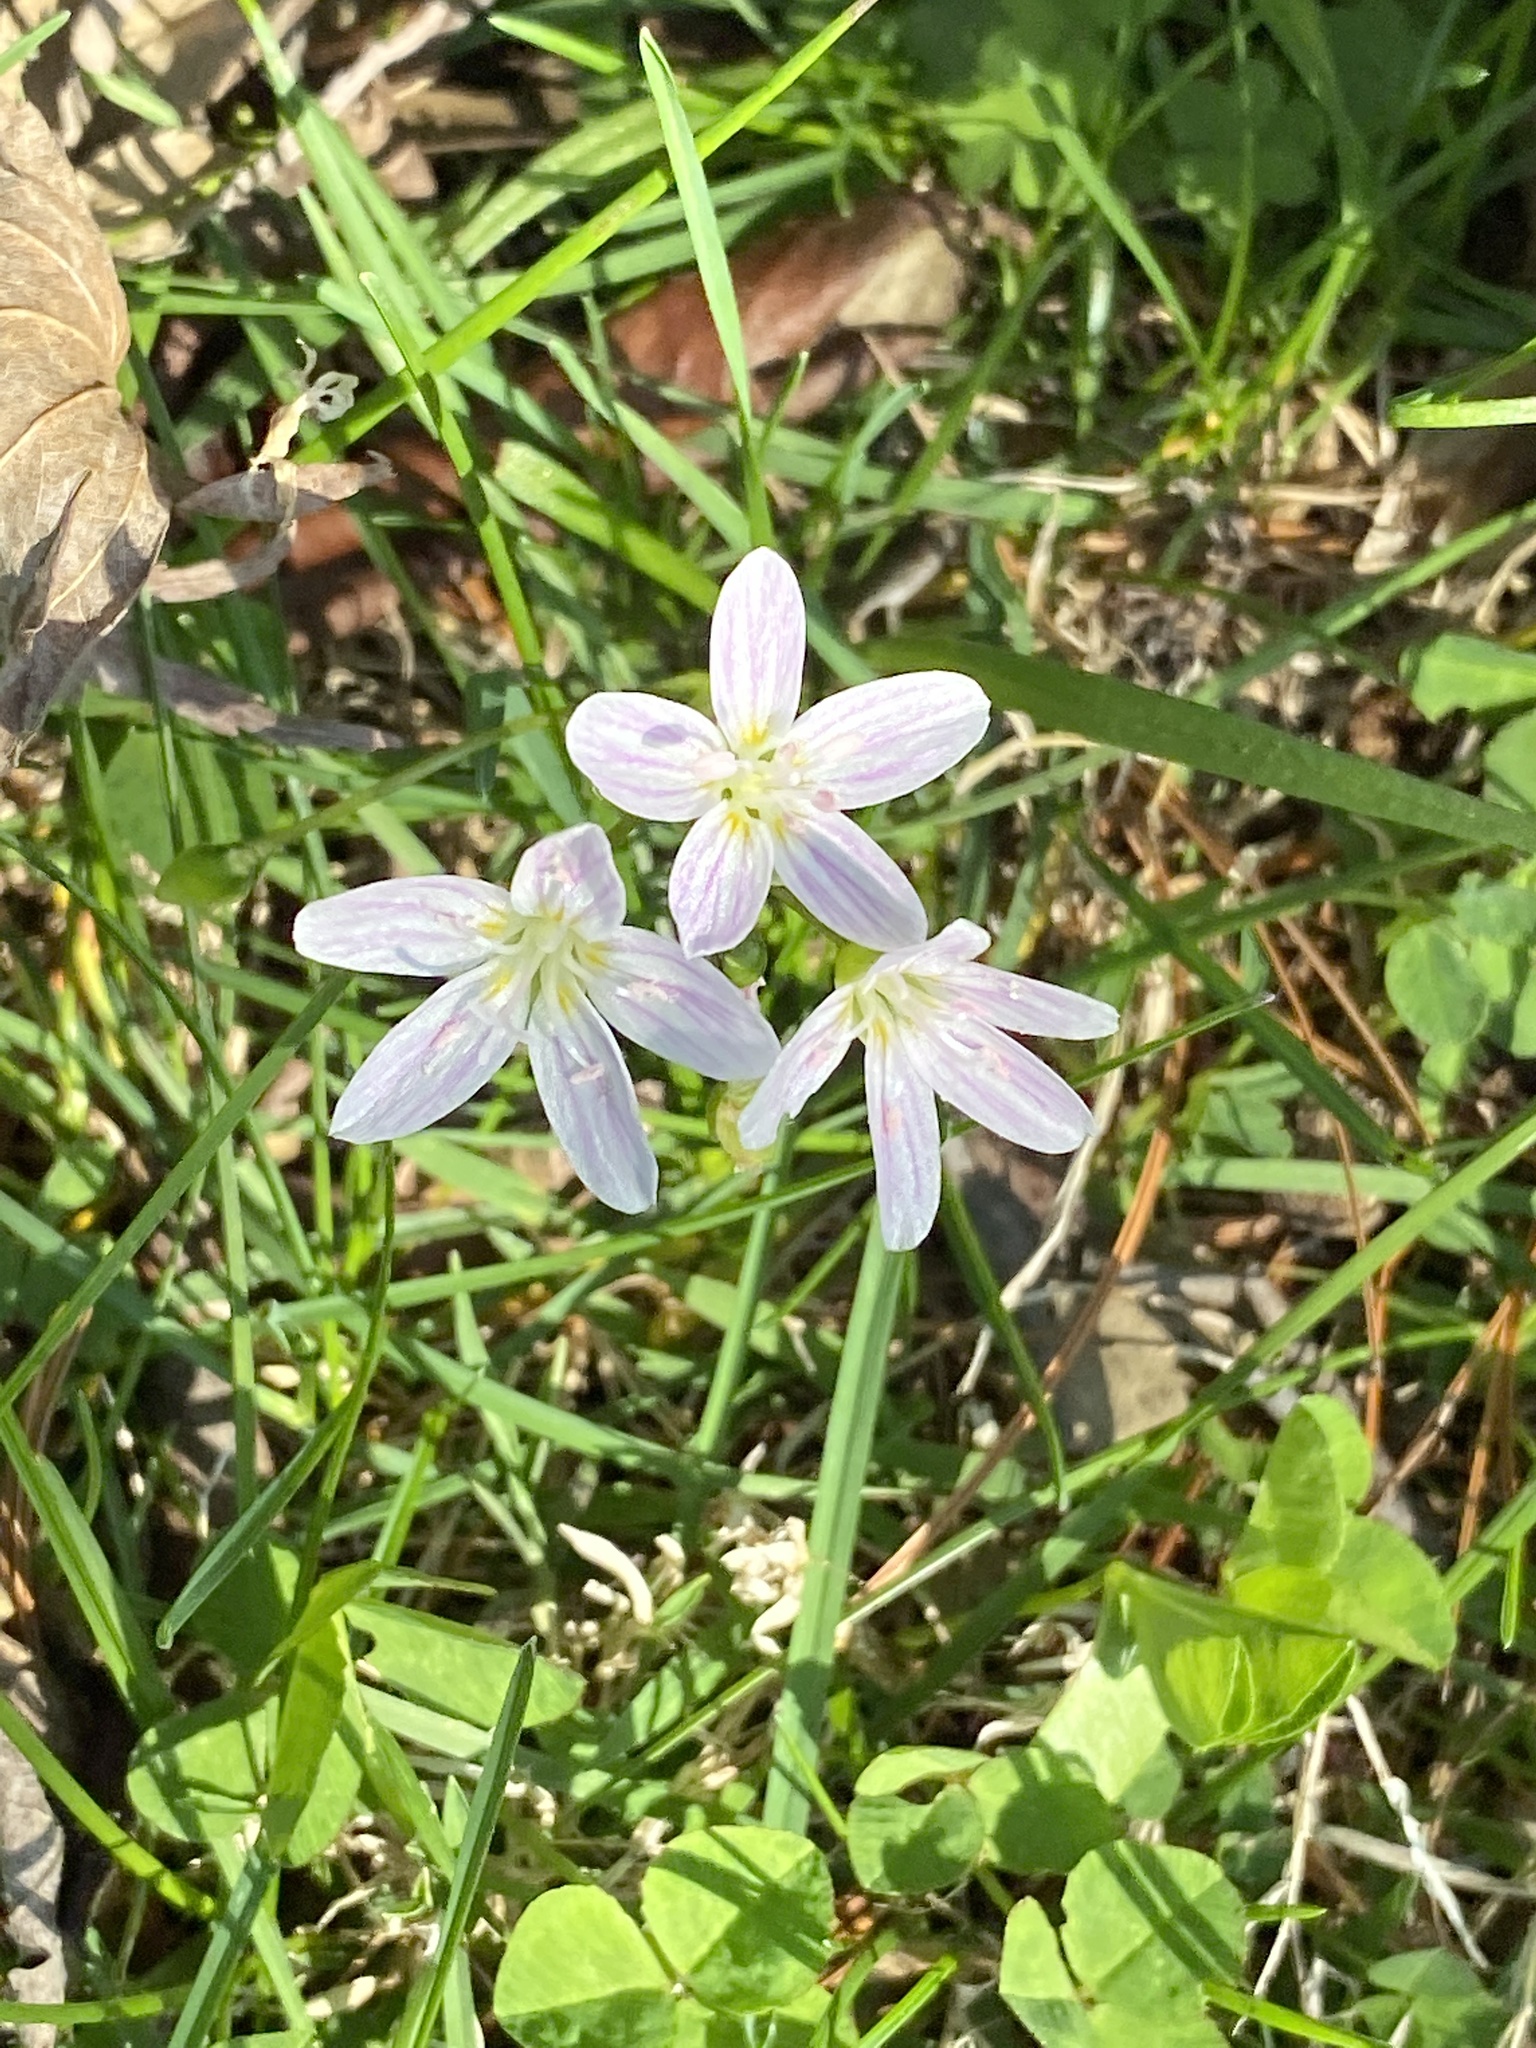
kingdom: Plantae
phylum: Tracheophyta
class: Magnoliopsida
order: Caryophyllales
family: Montiaceae
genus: Claytonia
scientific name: Claytonia virginica
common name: Virginia springbeauty
